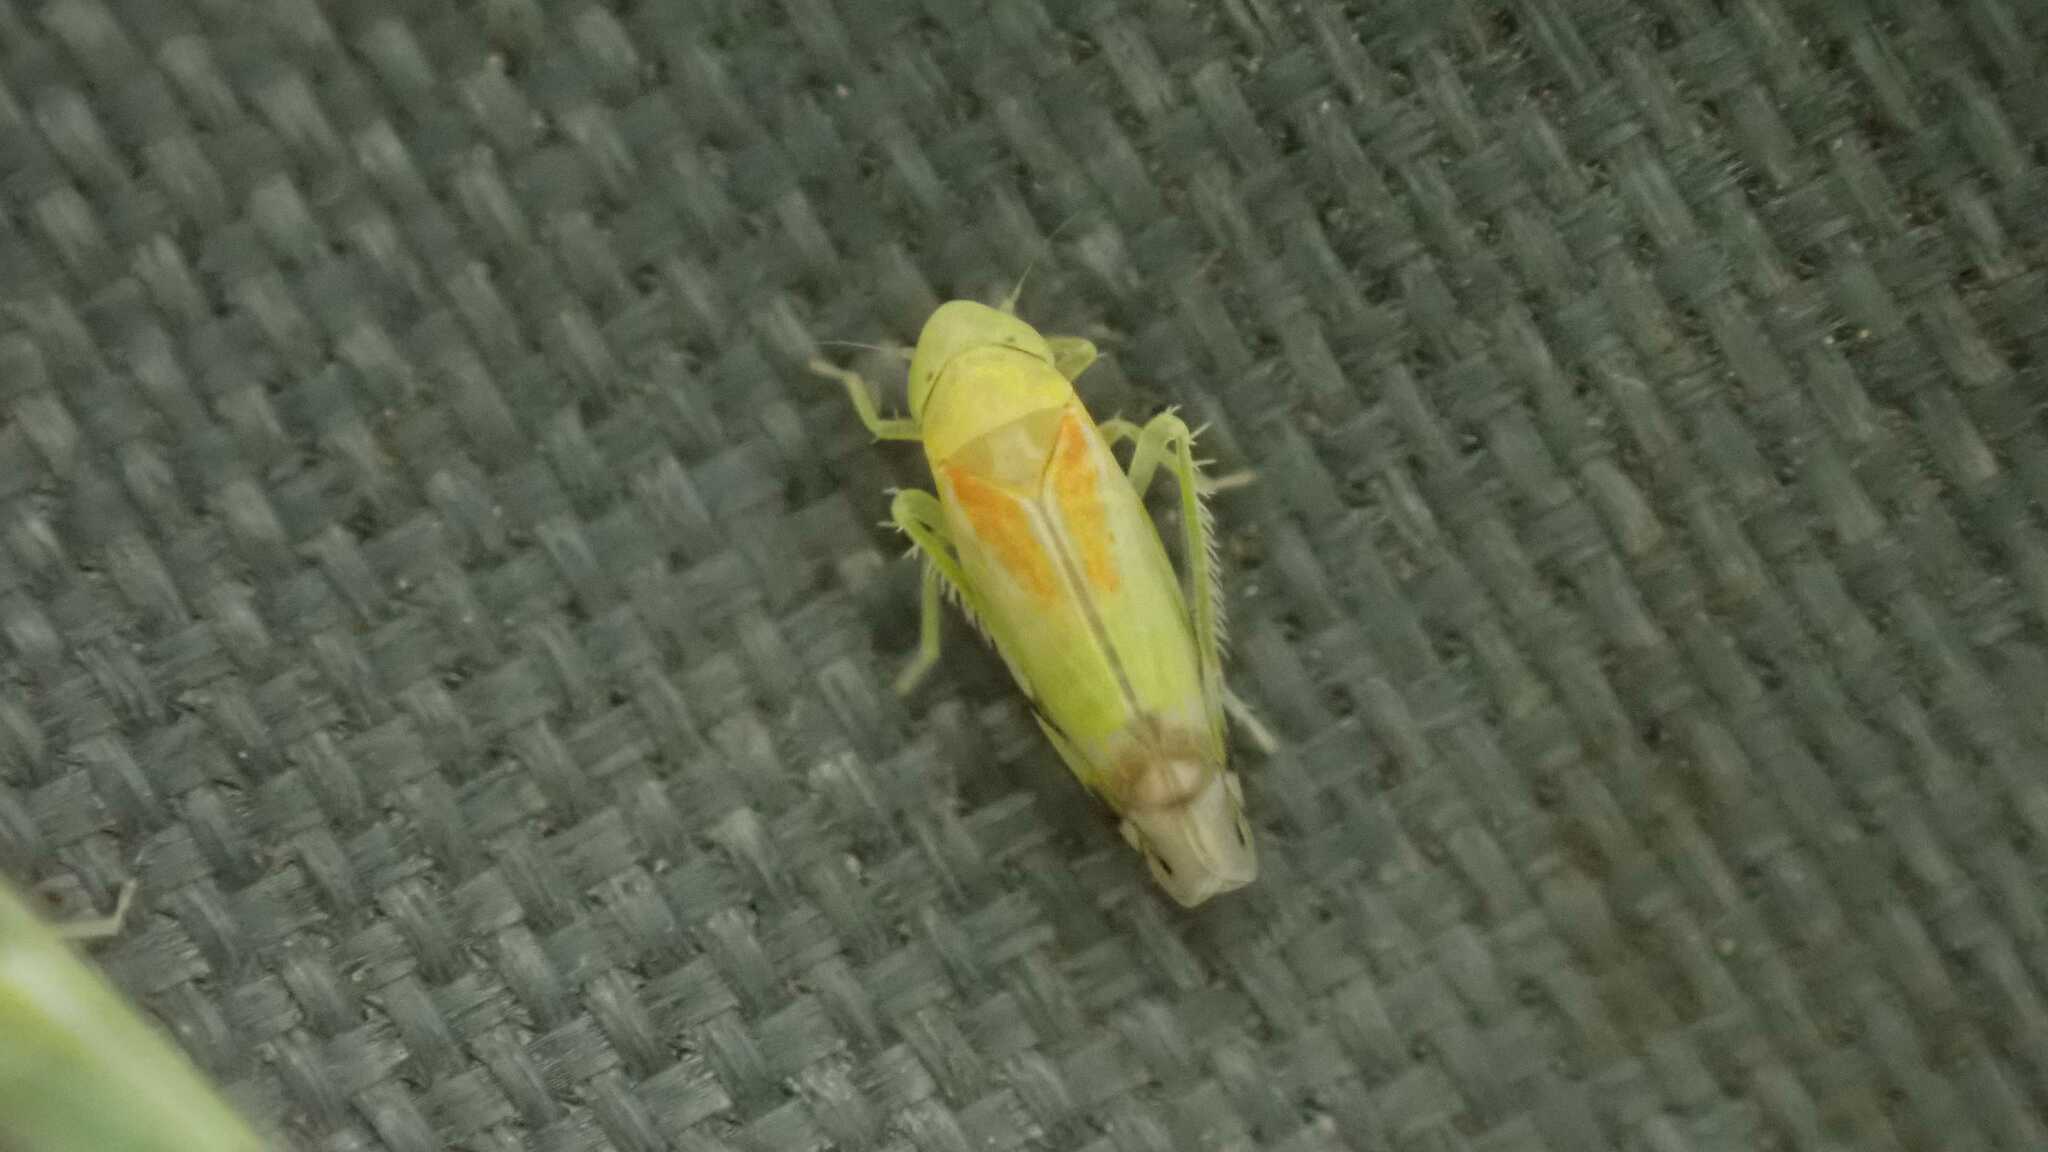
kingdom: Animalia
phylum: Arthropoda
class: Insecta
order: Hemiptera
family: Cicadellidae
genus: Zyginella
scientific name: Zyginella pulchra
